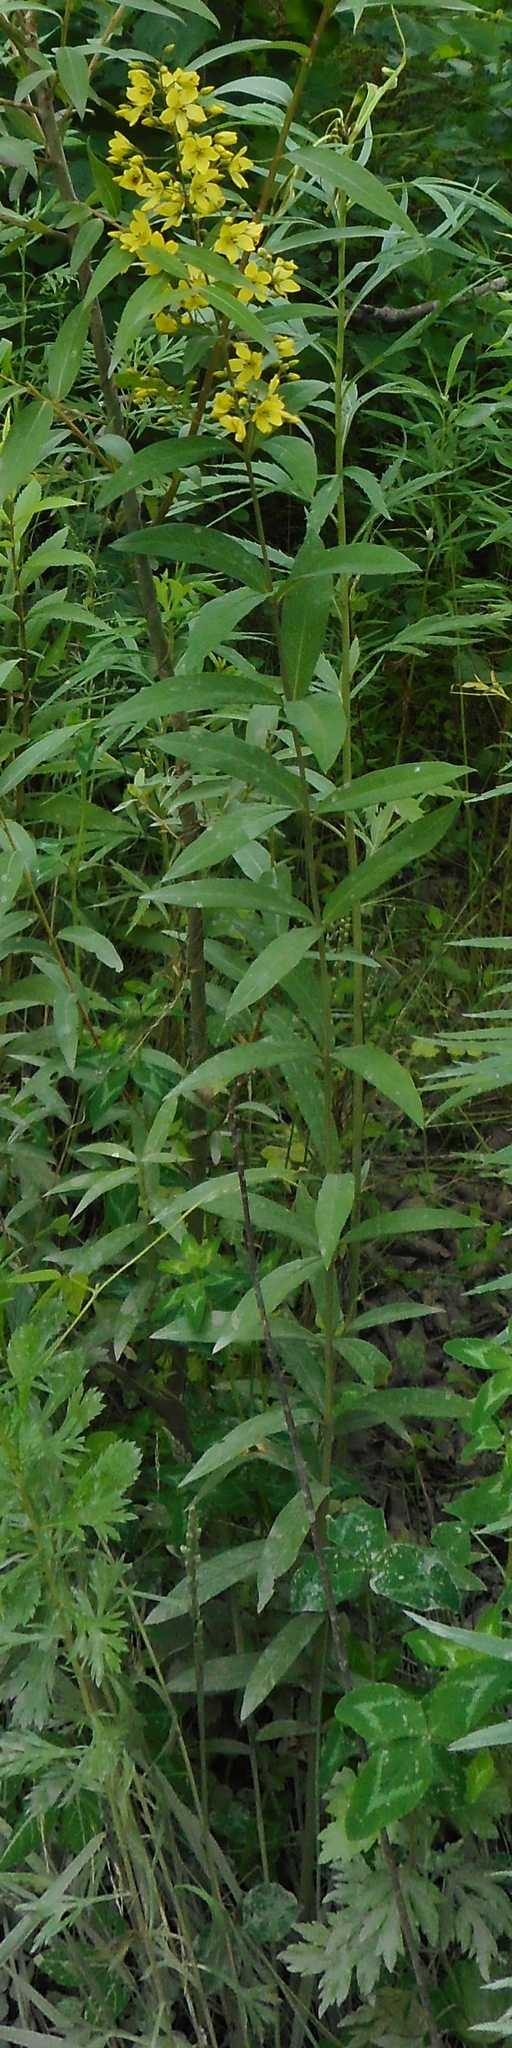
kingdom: Plantae
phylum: Tracheophyta
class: Magnoliopsida
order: Ericales
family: Primulaceae
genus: Lysimachia
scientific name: Lysimachia davurica
